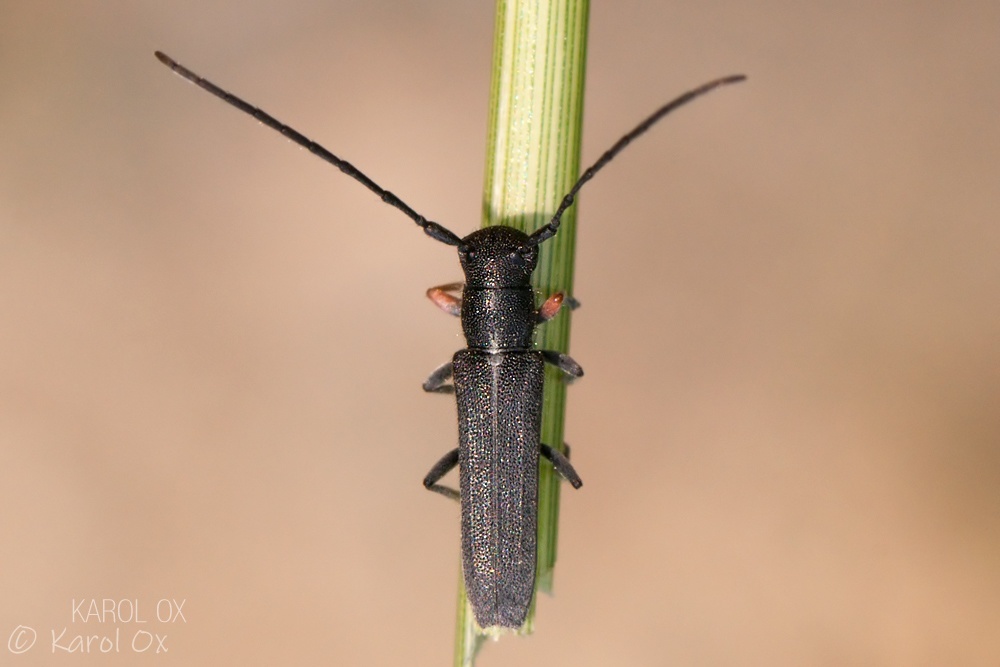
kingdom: Animalia
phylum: Arthropoda
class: Insecta
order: Coleoptera
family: Cerambycidae
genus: Phytoecia
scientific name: Phytoecia cylindrica
